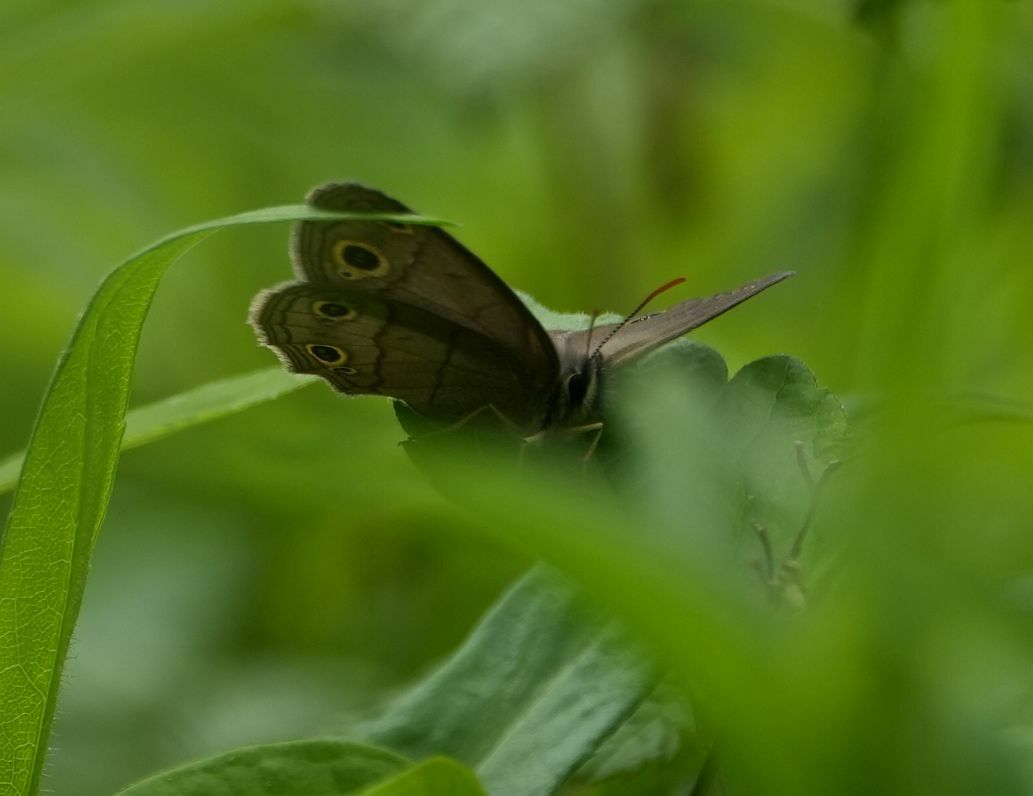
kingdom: Animalia
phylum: Arthropoda
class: Insecta
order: Lepidoptera
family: Nymphalidae
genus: Euptychia
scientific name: Euptychia cymela
